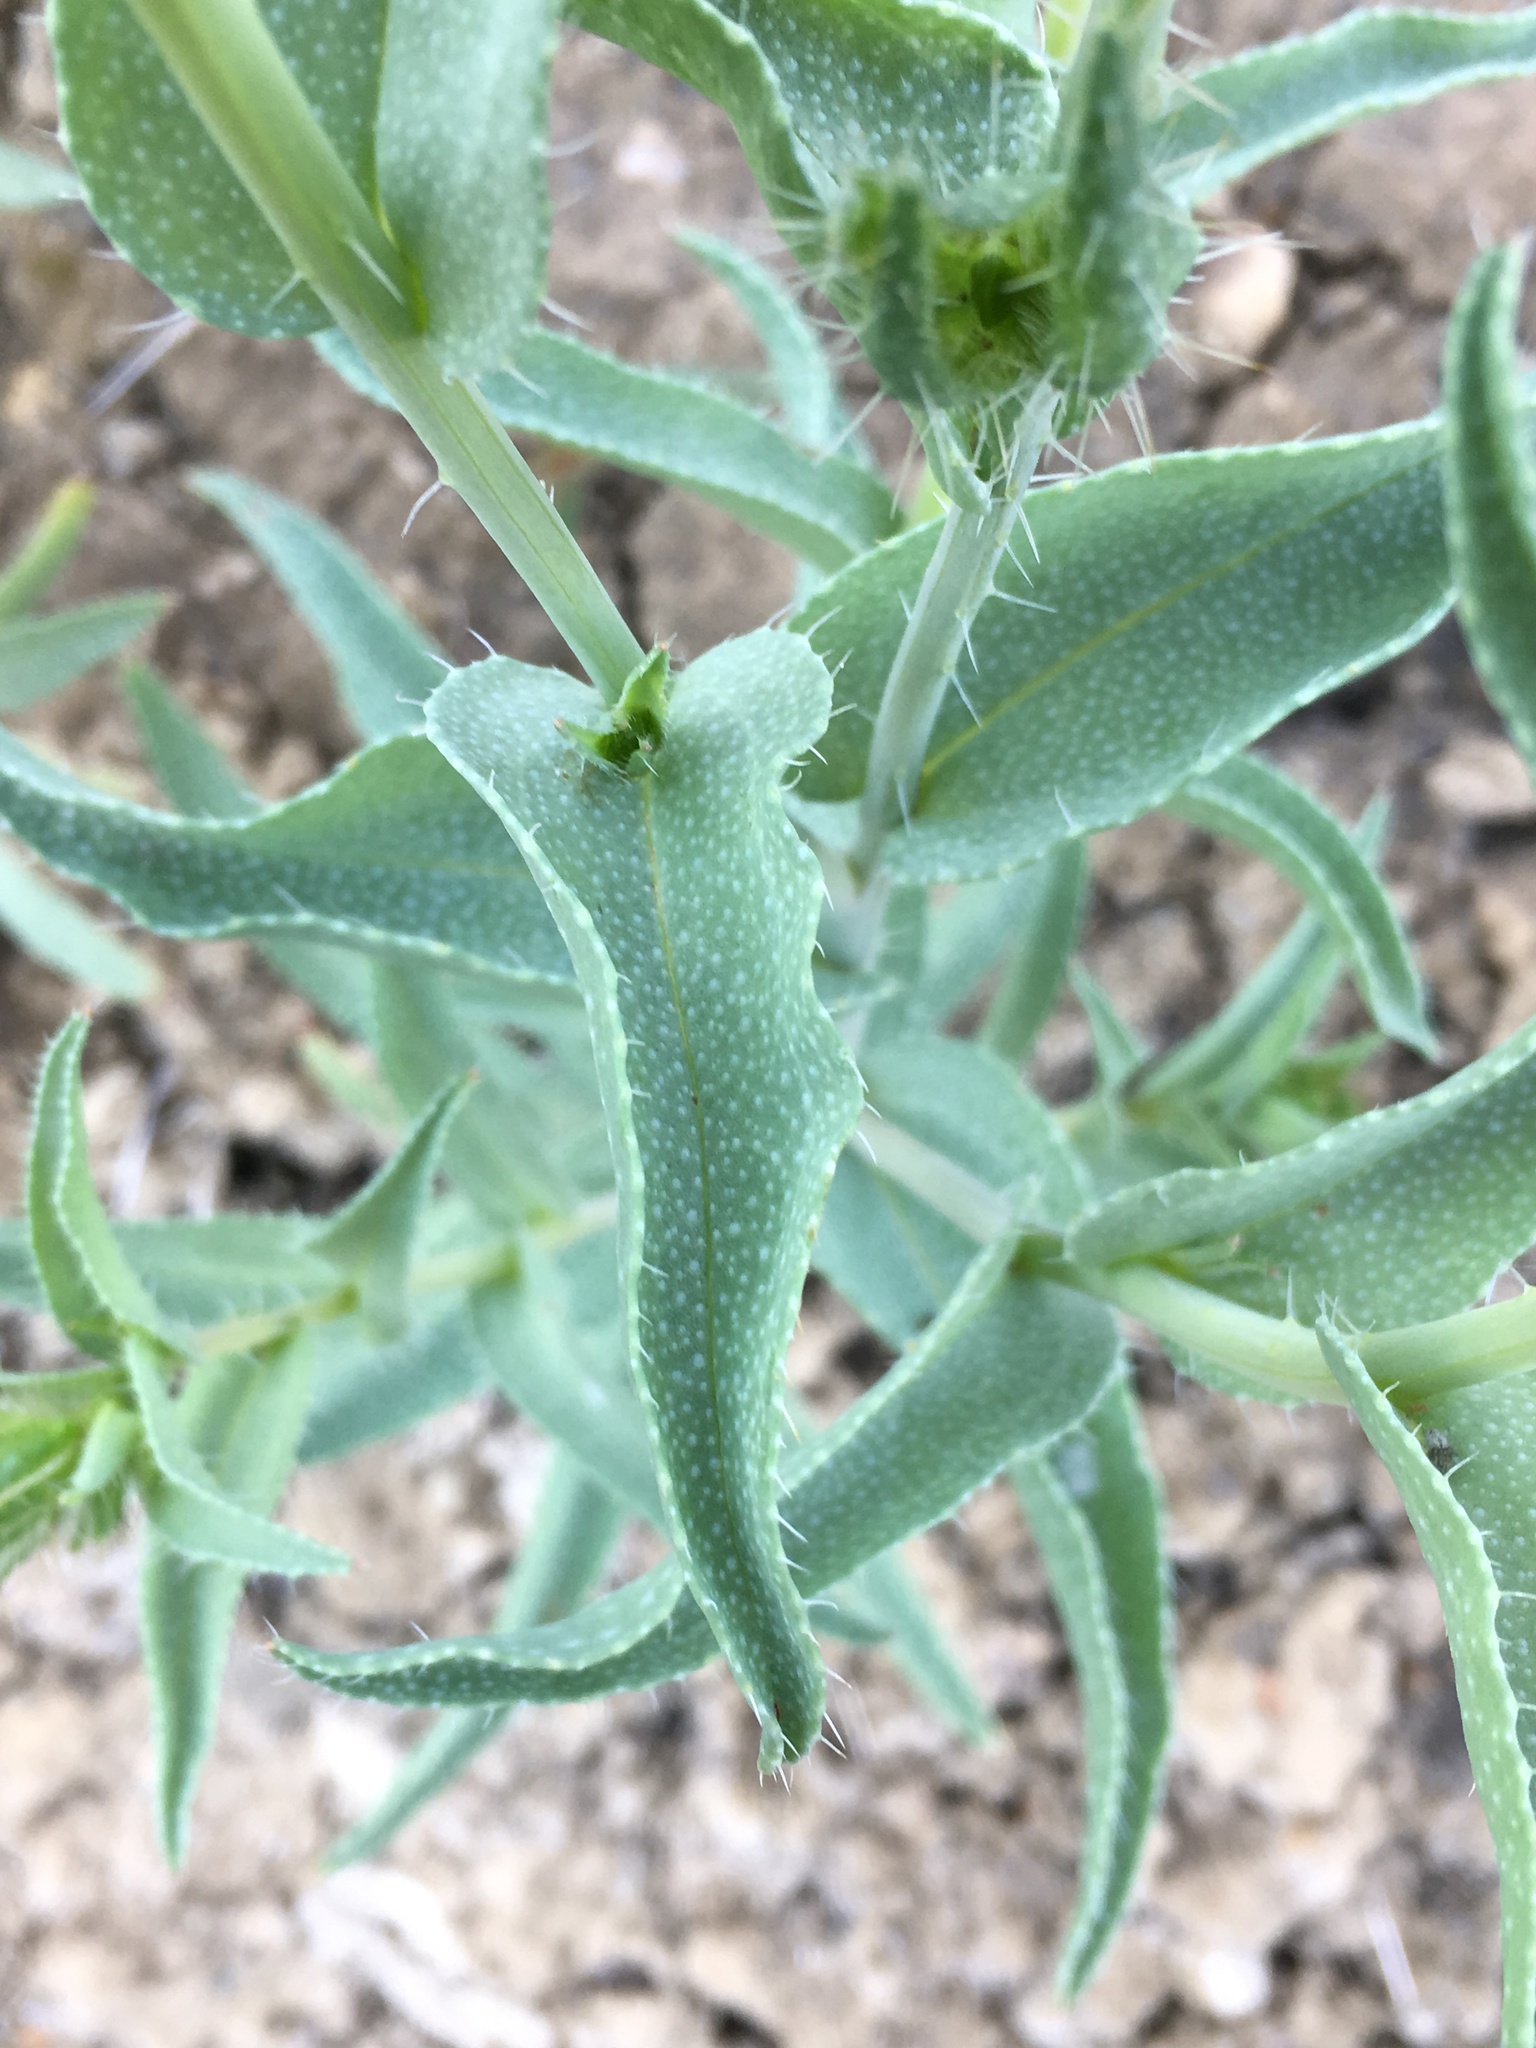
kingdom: Plantae
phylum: Tracheophyta
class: Magnoliopsida
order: Boraginales
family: Boraginaceae
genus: Amsinckia
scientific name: Amsinckia vernicosa
